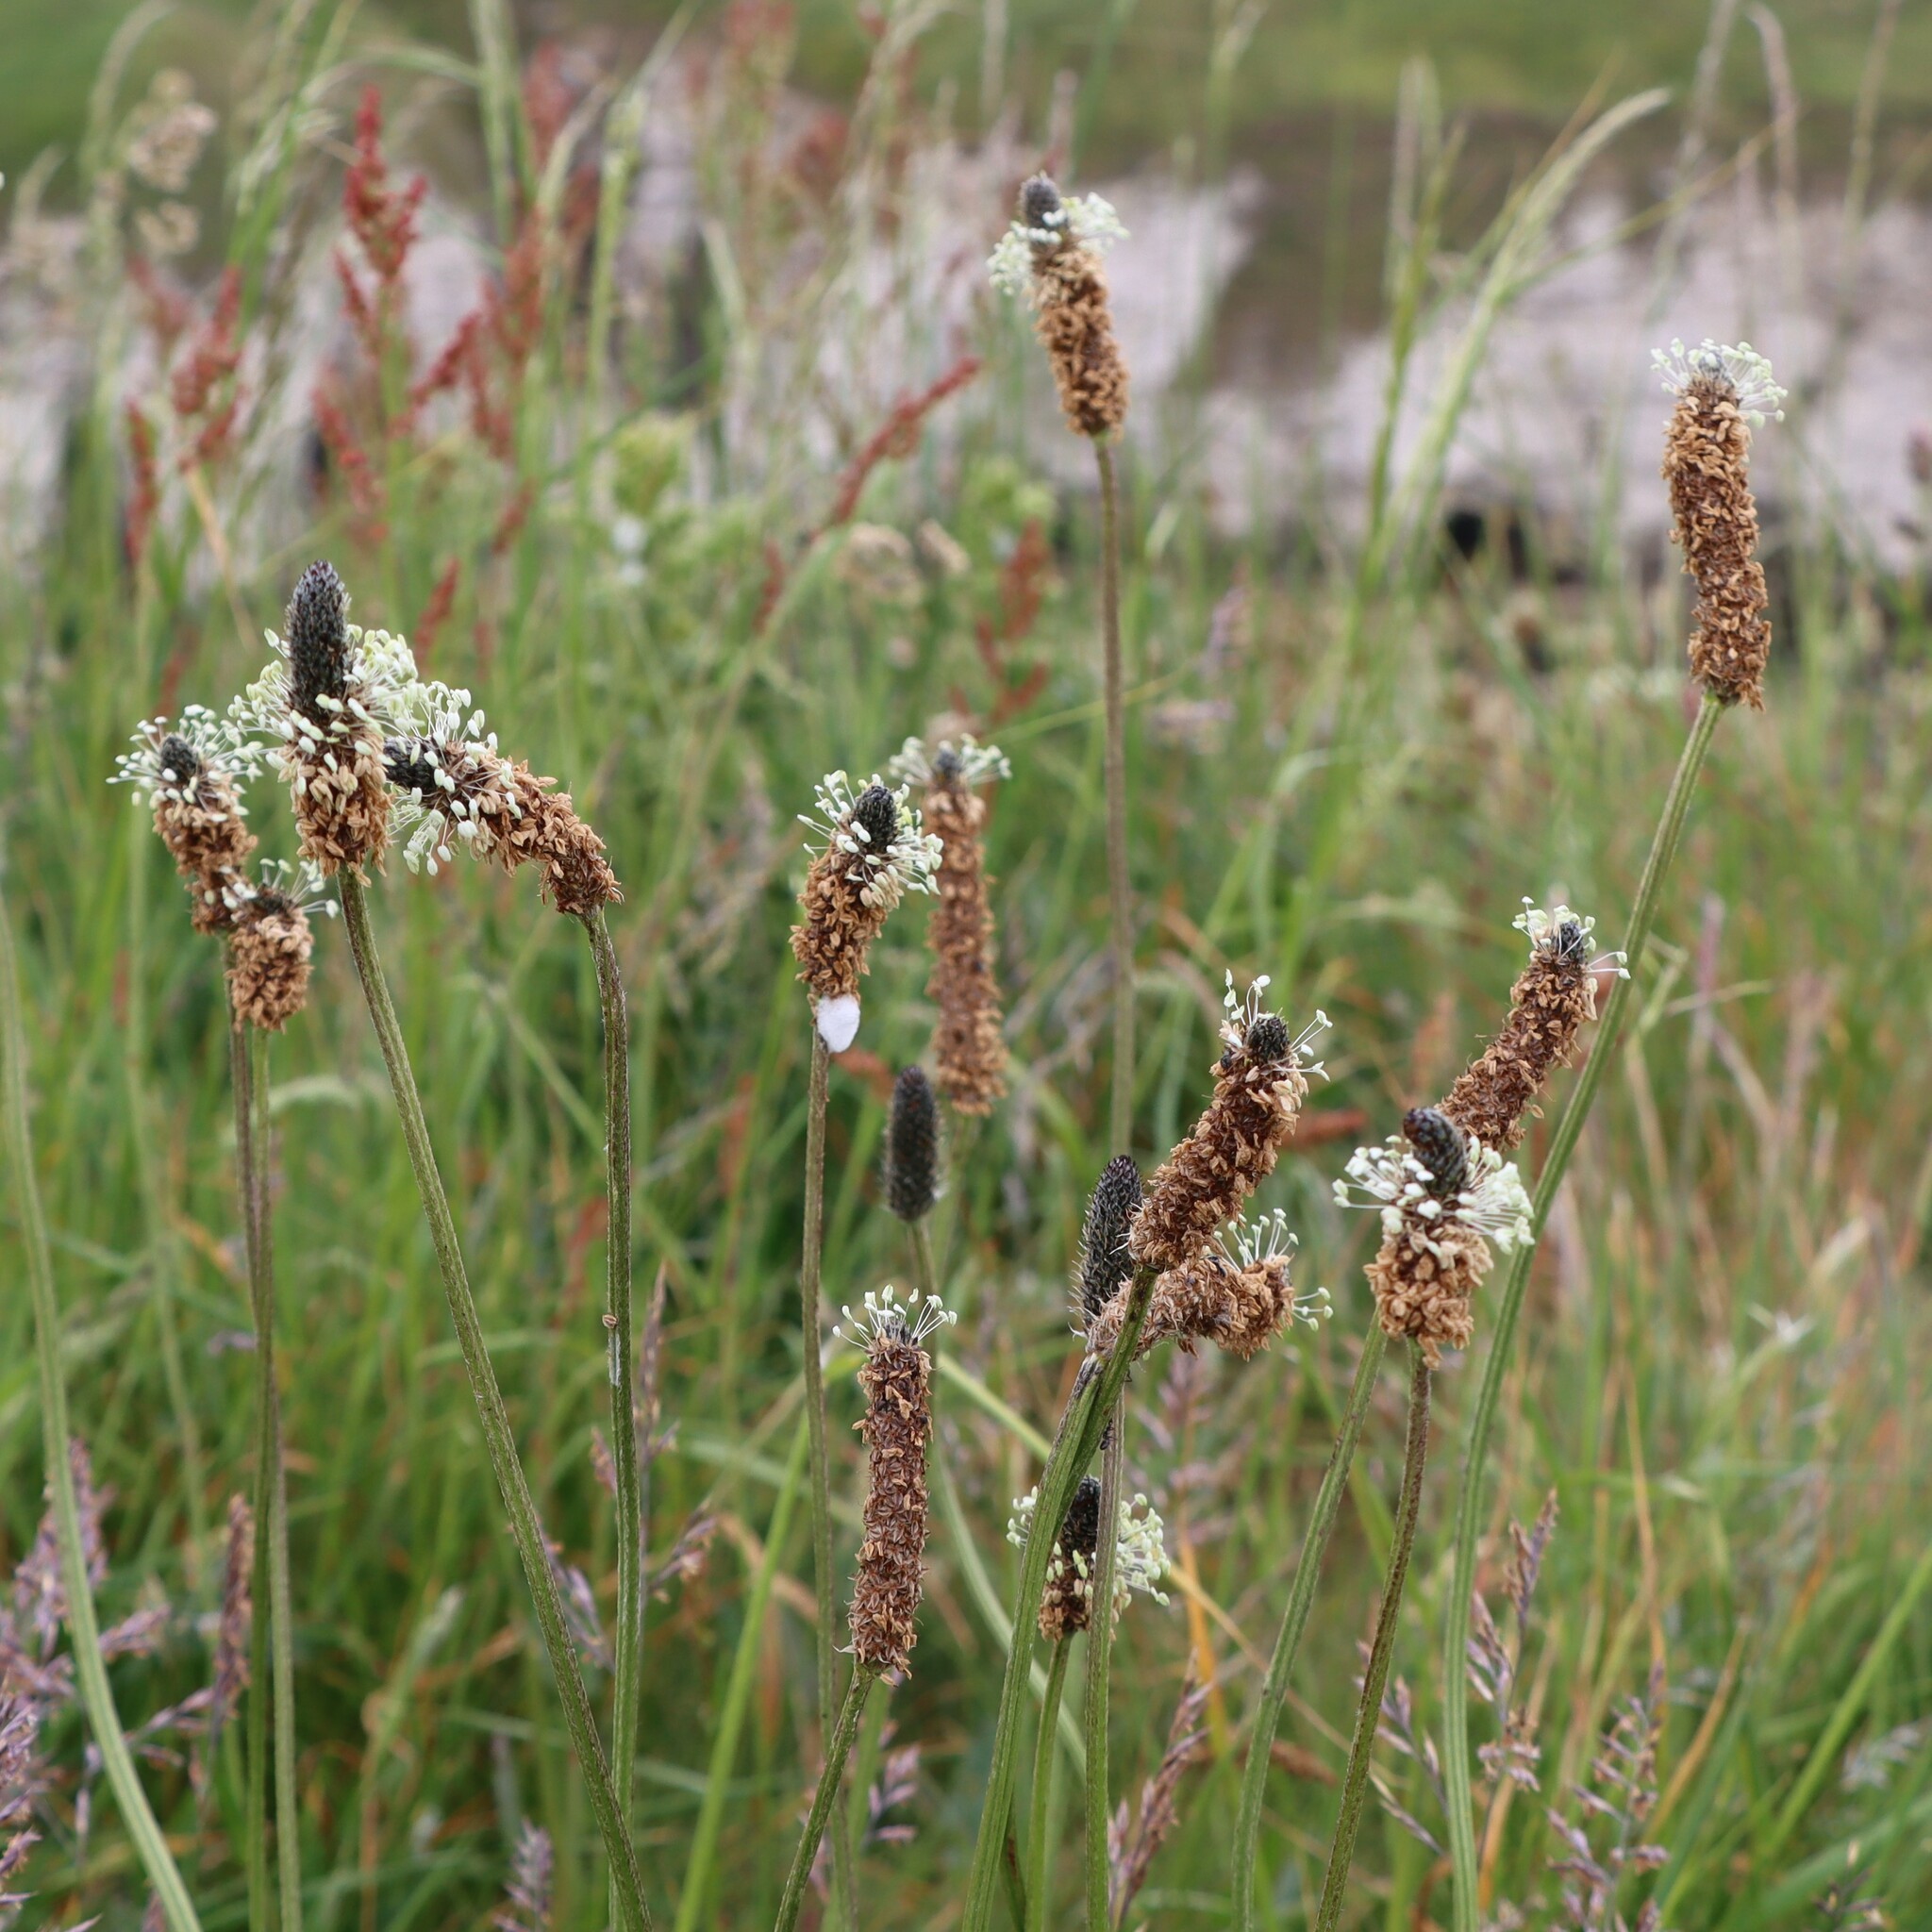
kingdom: Plantae
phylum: Tracheophyta
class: Magnoliopsida
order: Lamiales
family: Plantaginaceae
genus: Plantago
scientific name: Plantago lanceolata
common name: Ribwort plantain
